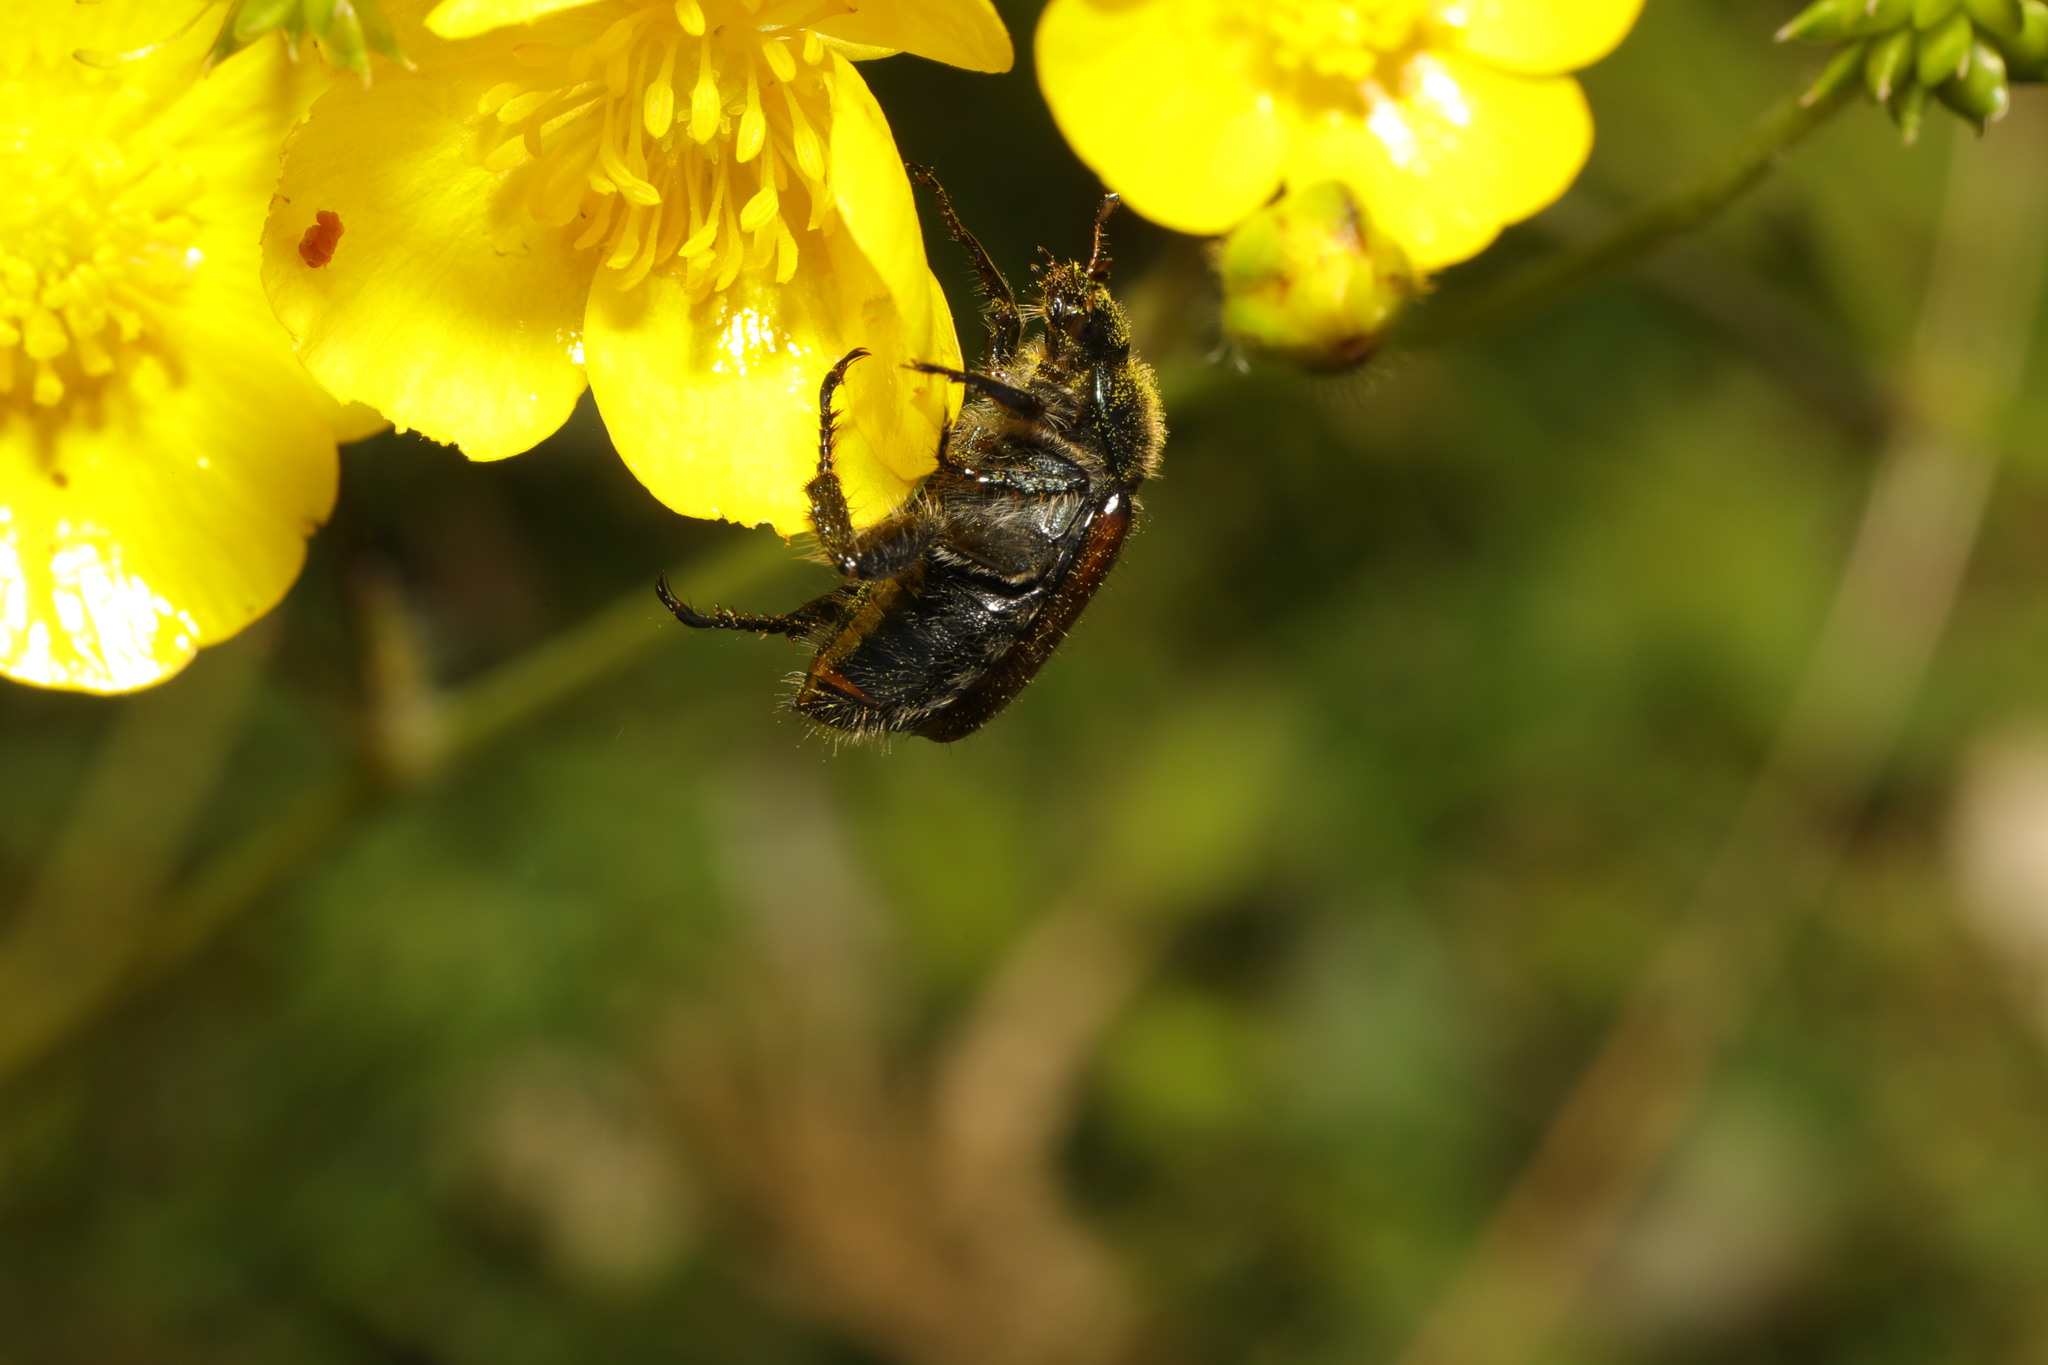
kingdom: Animalia
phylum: Arthropoda
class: Insecta
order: Coleoptera
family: Scarabaeidae
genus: Phyllopertha
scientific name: Phyllopertha horticola
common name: Garden chafer
